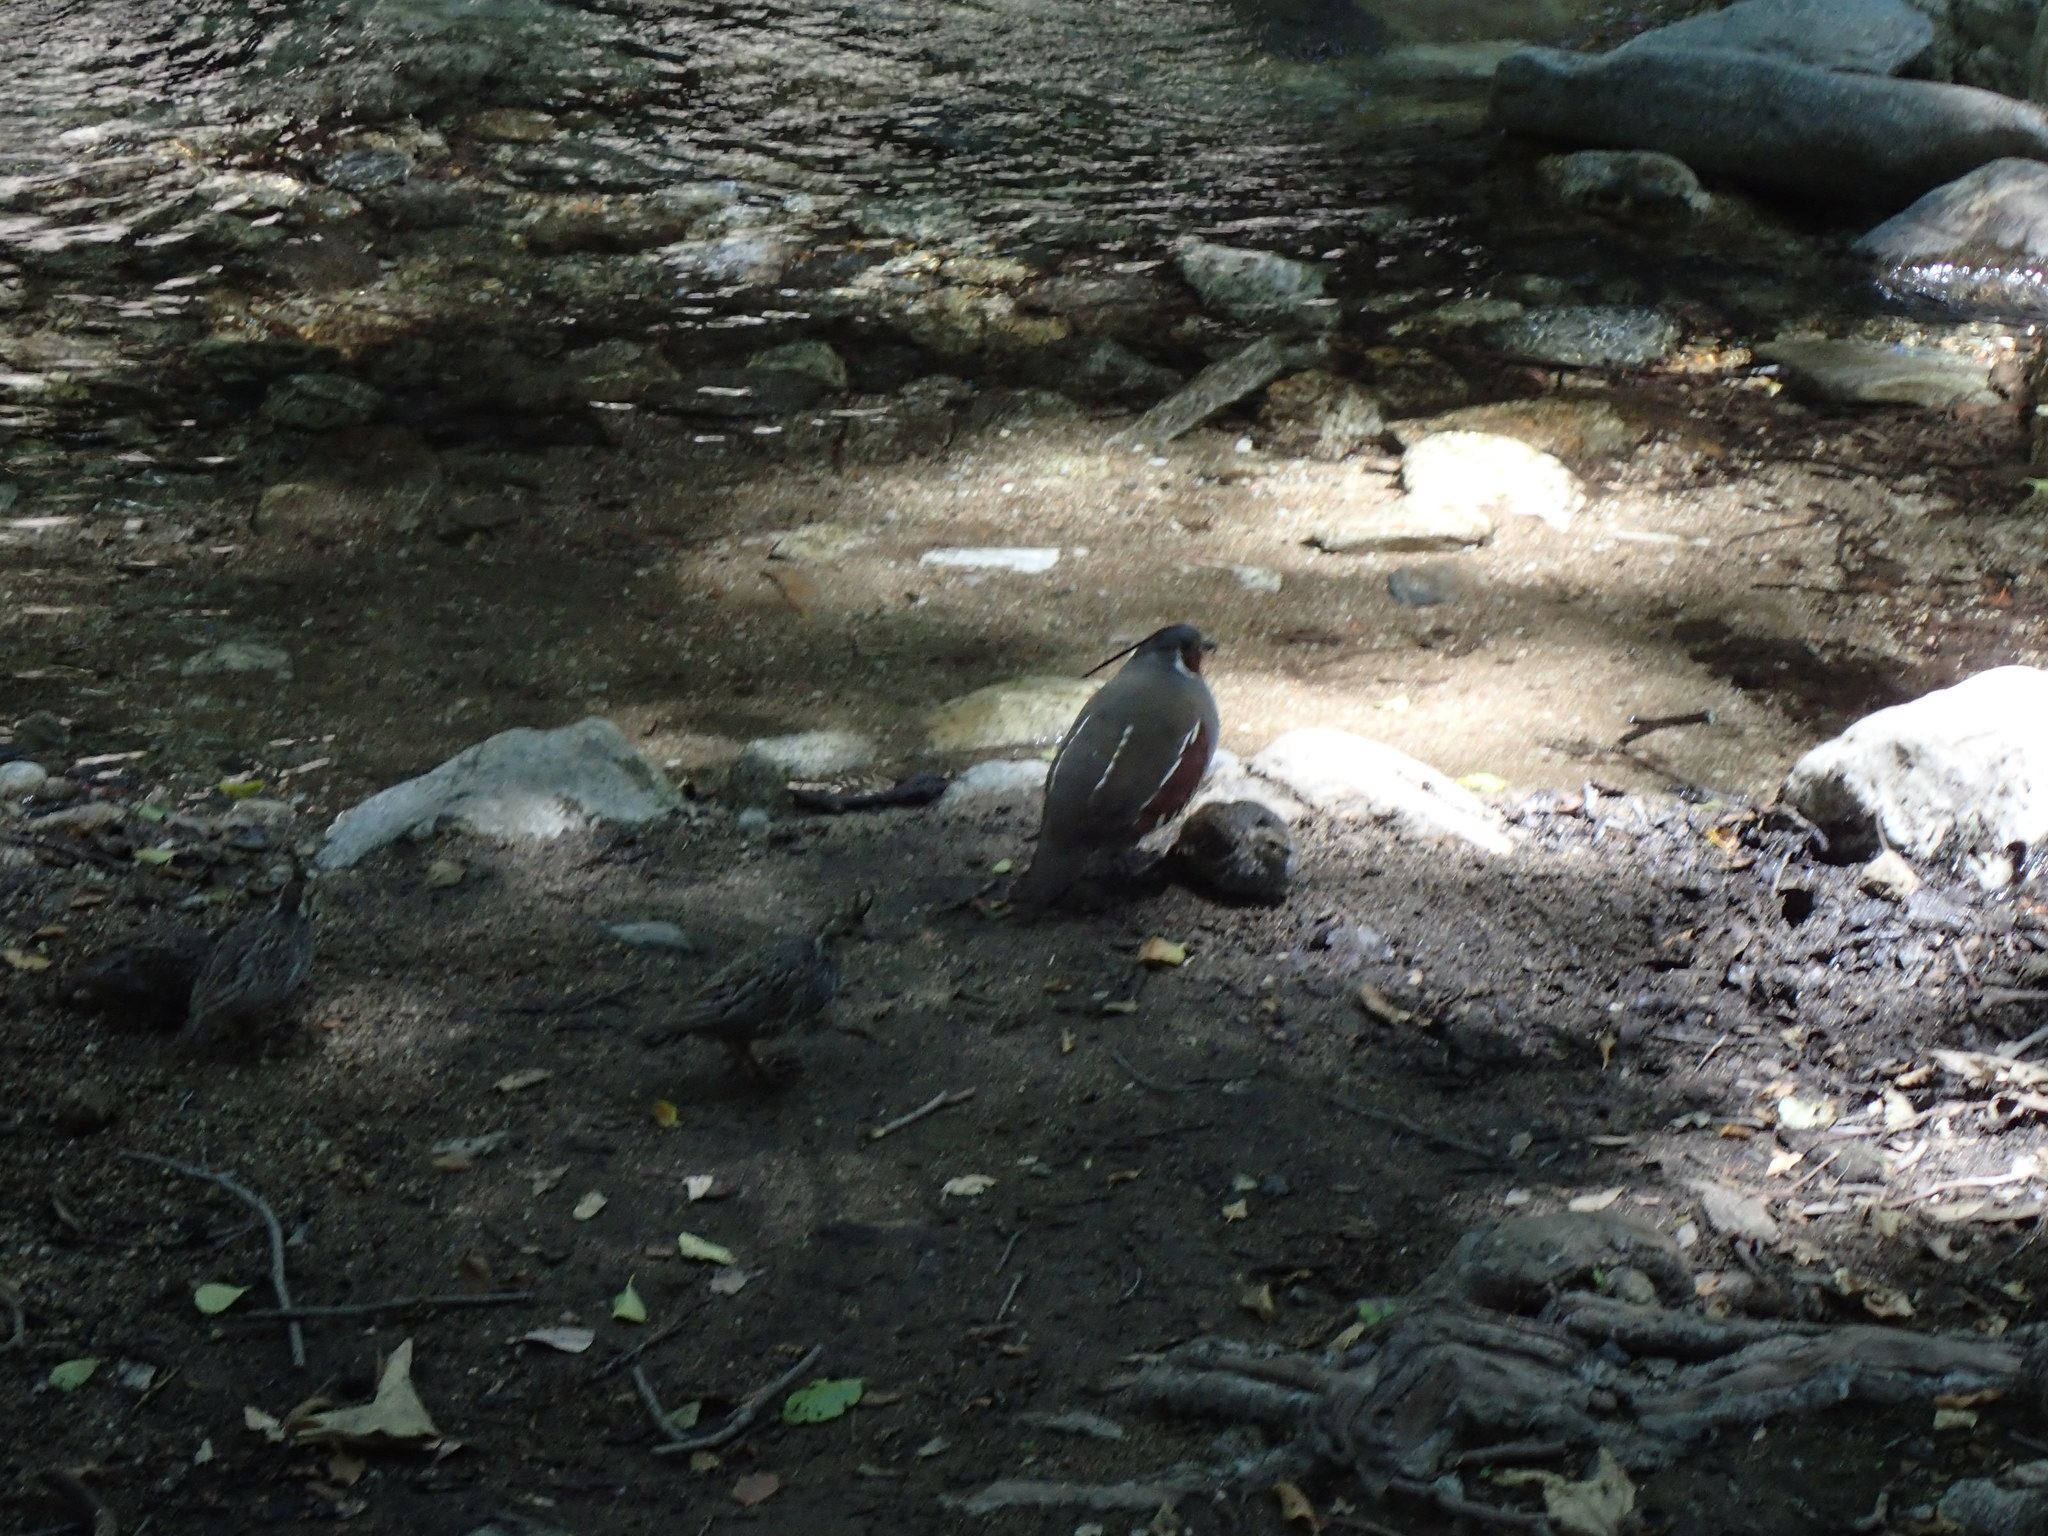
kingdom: Animalia
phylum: Chordata
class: Aves
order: Galliformes
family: Odontophoridae
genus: Oreortyx
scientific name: Oreortyx pictus
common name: Mountain quail
